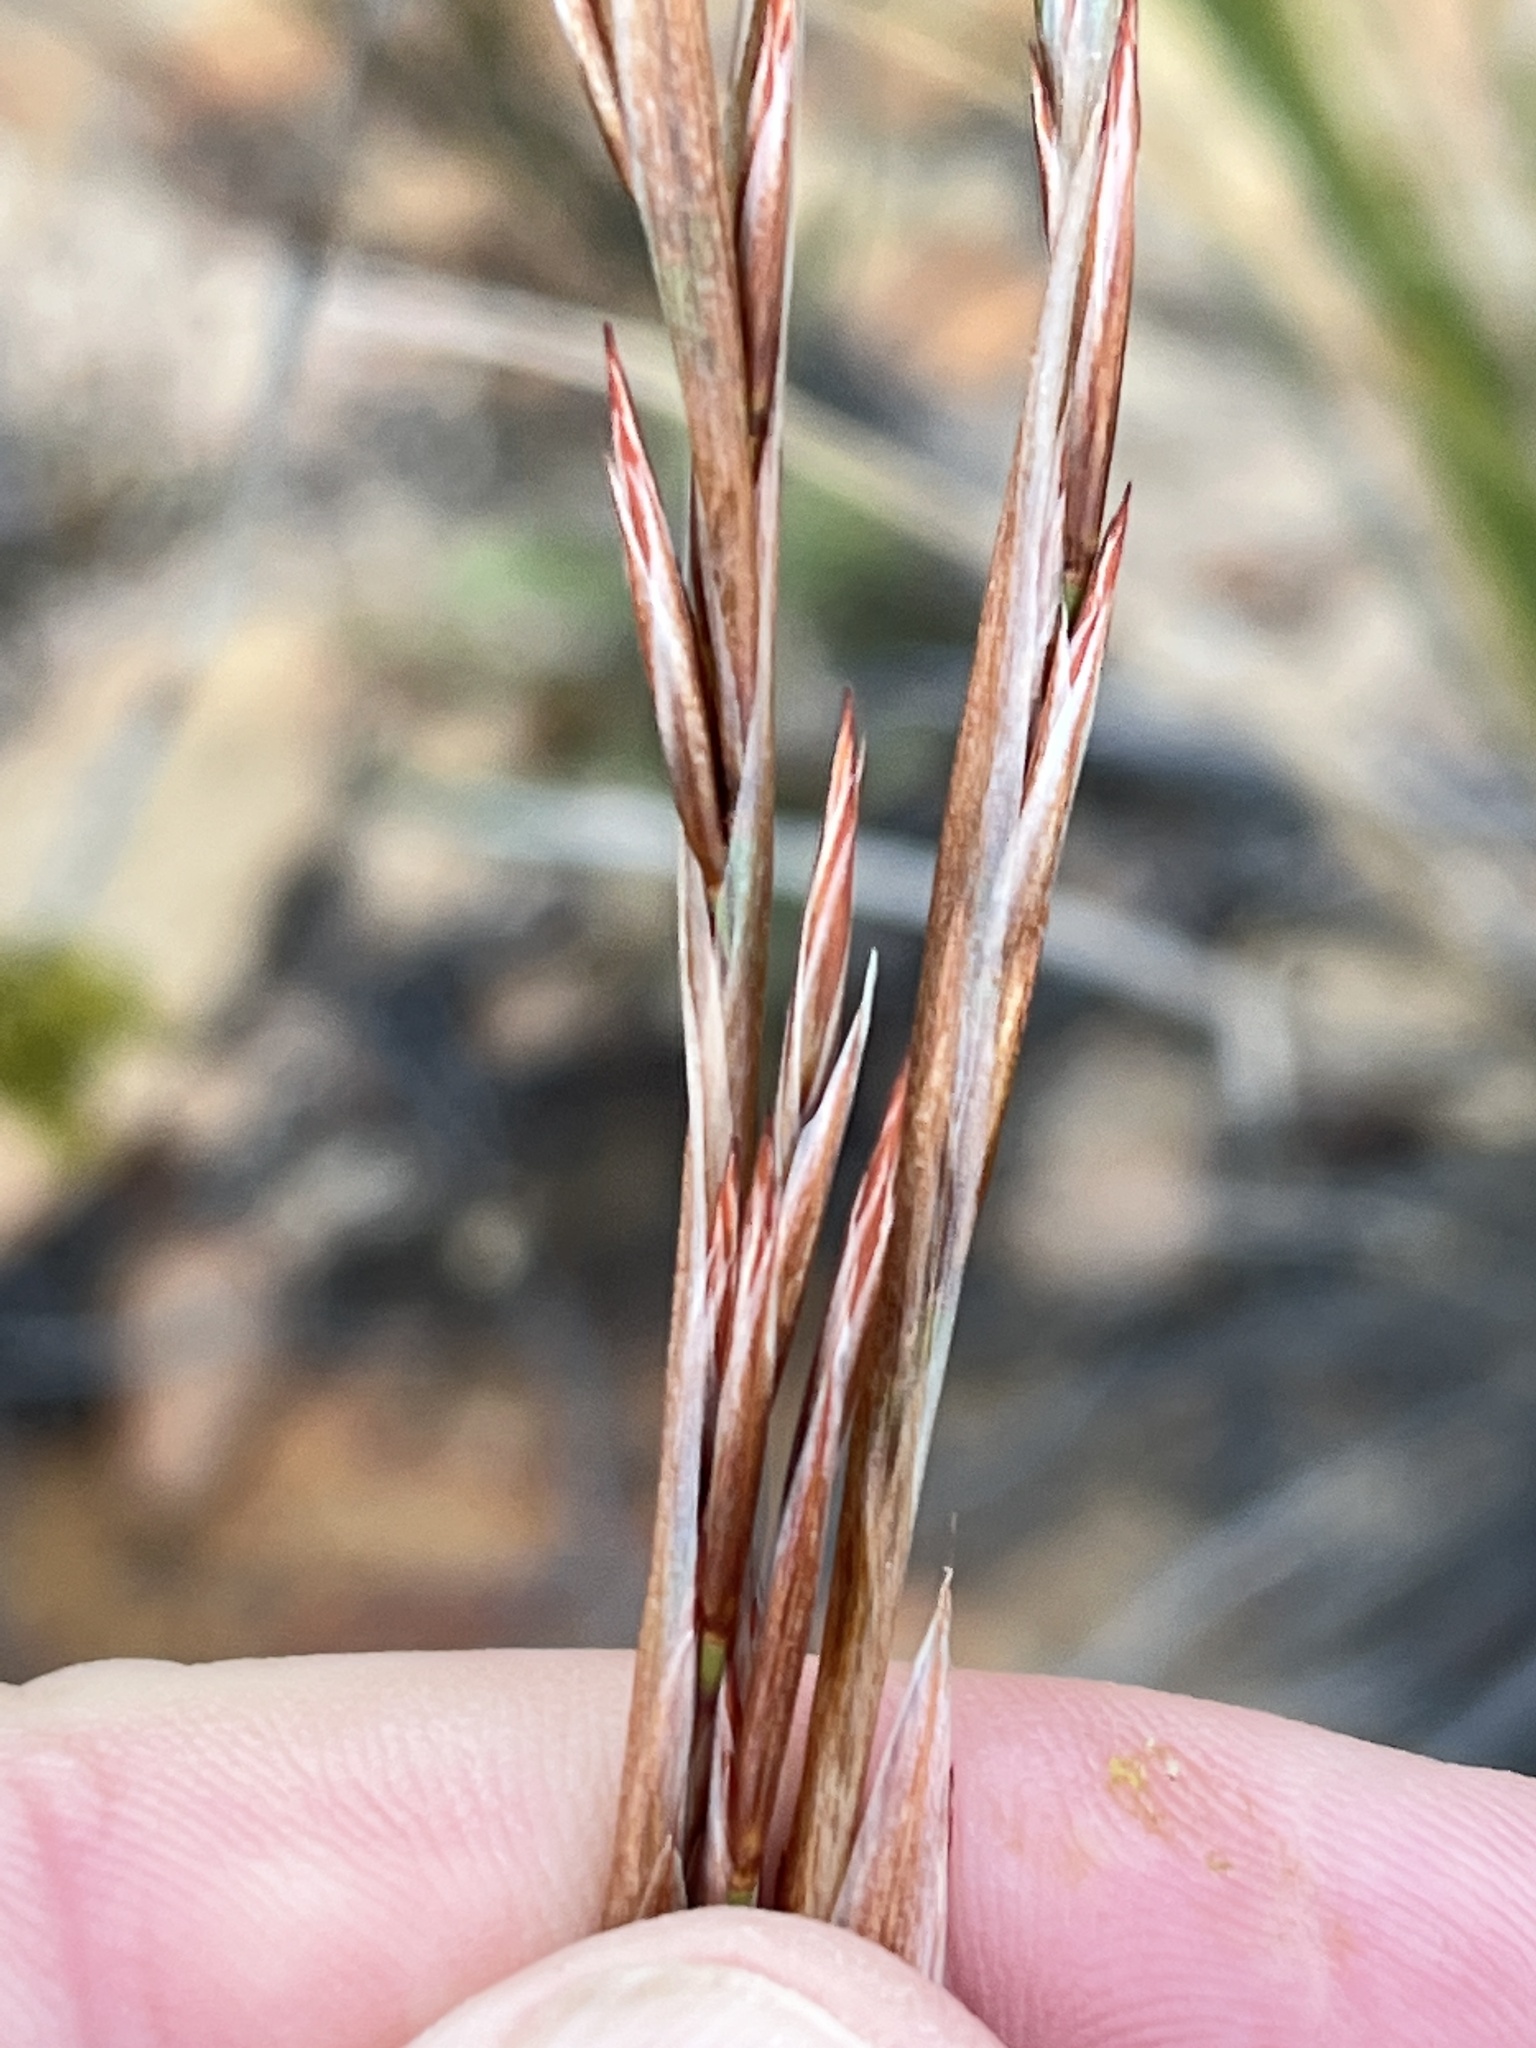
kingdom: Plantae
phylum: Tracheophyta
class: Liliopsida
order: Poales
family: Restionaceae
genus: Thamnochortus
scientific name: Thamnochortus rigidus
